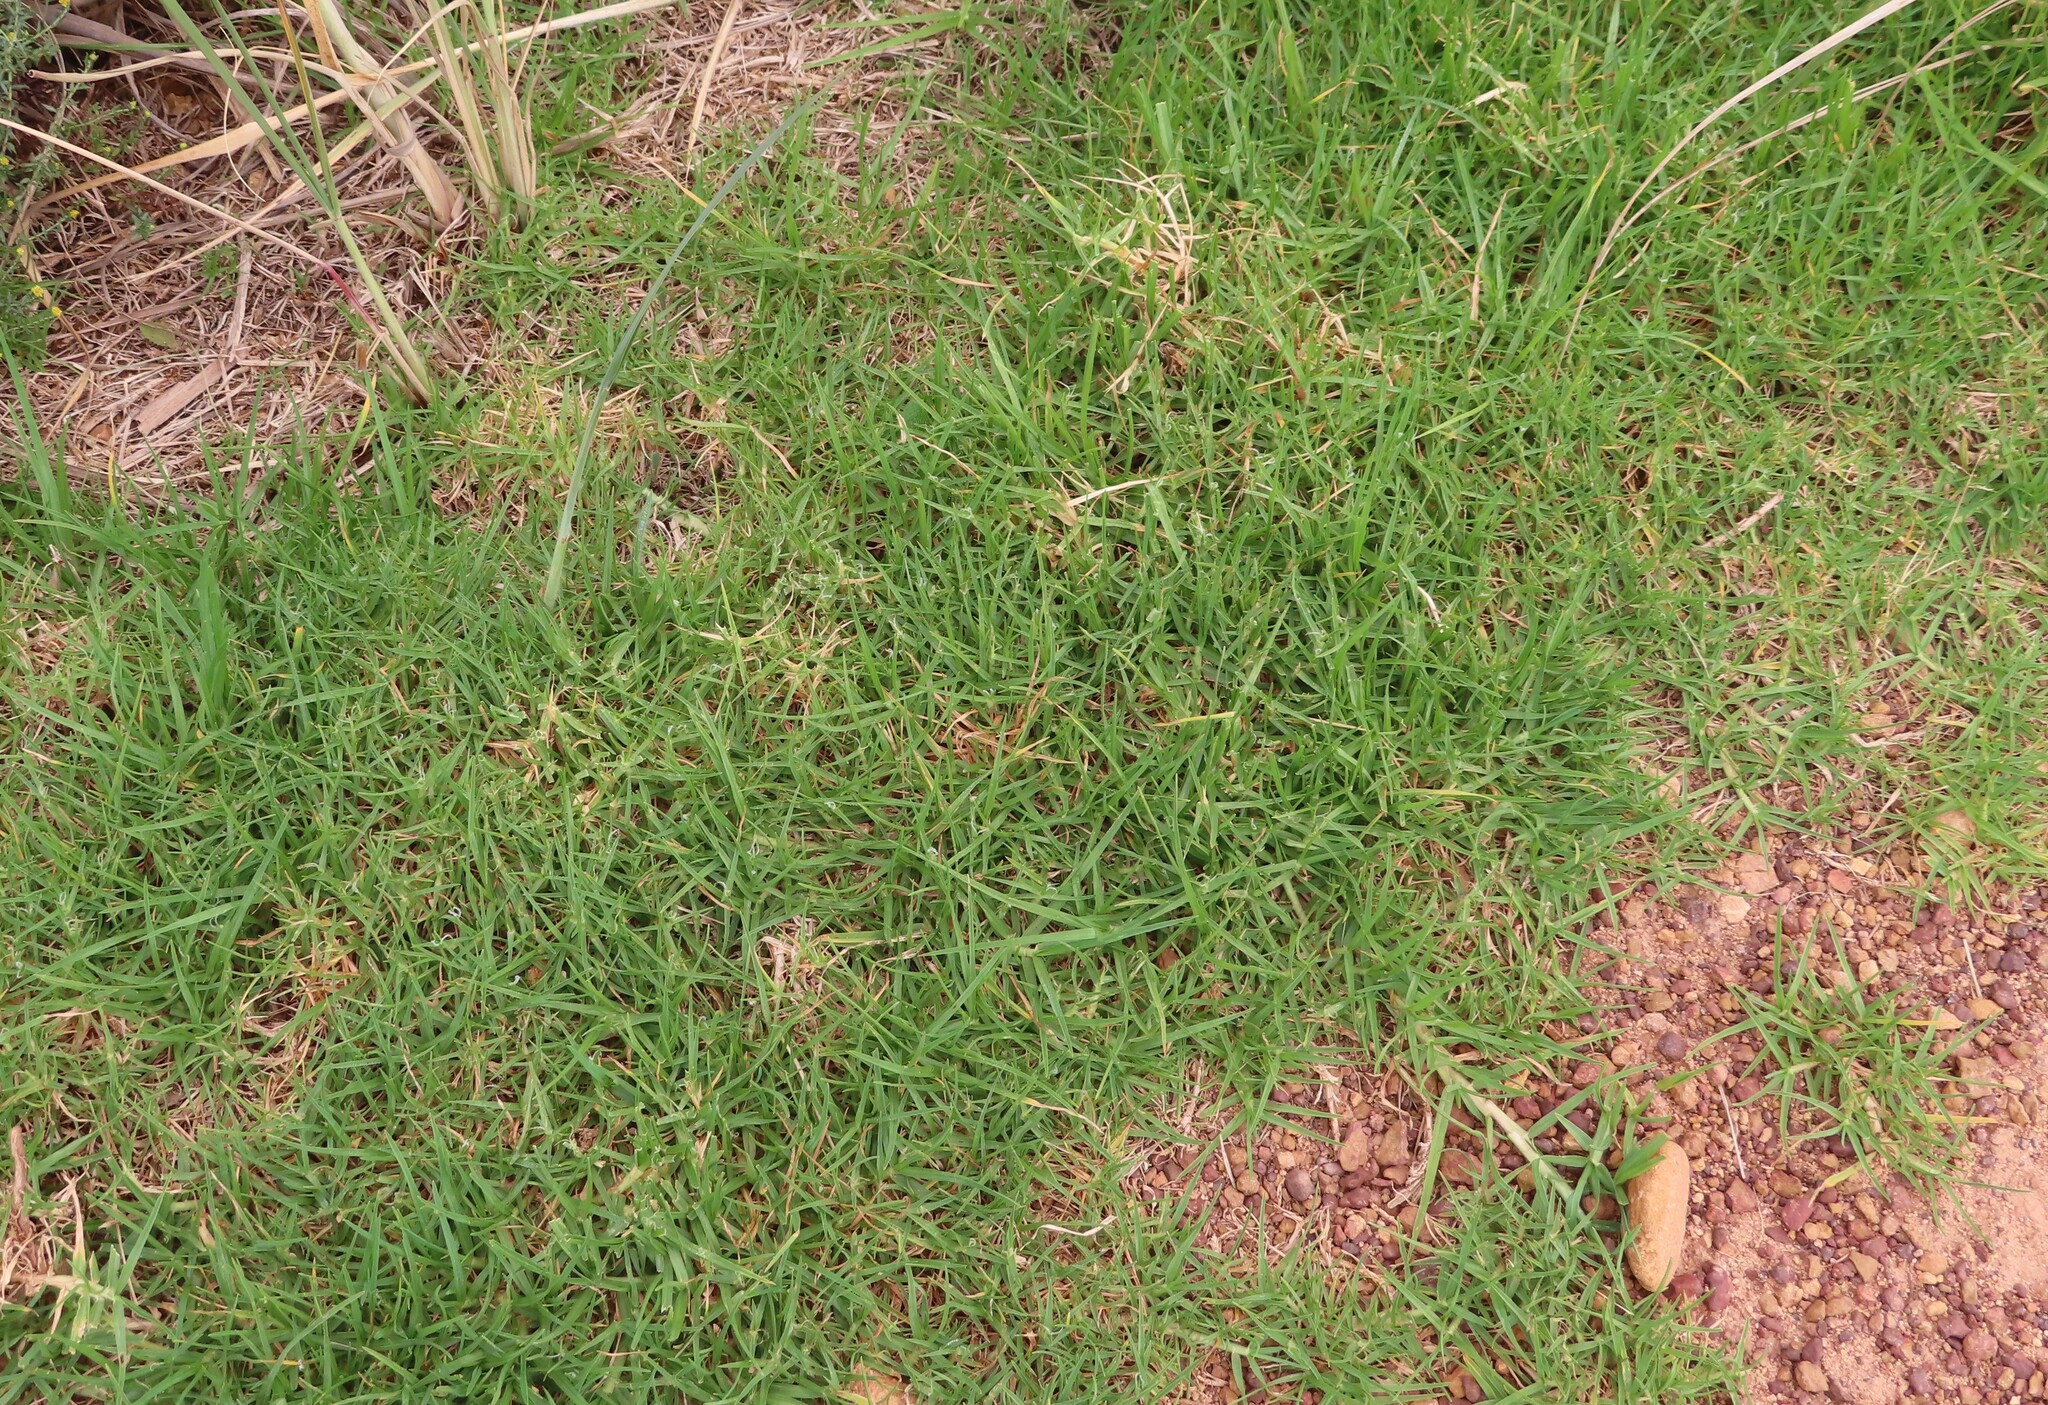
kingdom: Plantae
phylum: Tracheophyta
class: Liliopsida
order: Poales
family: Poaceae
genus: Cenchrus
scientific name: Cenchrus clandestinus
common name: Kikuyugrass
